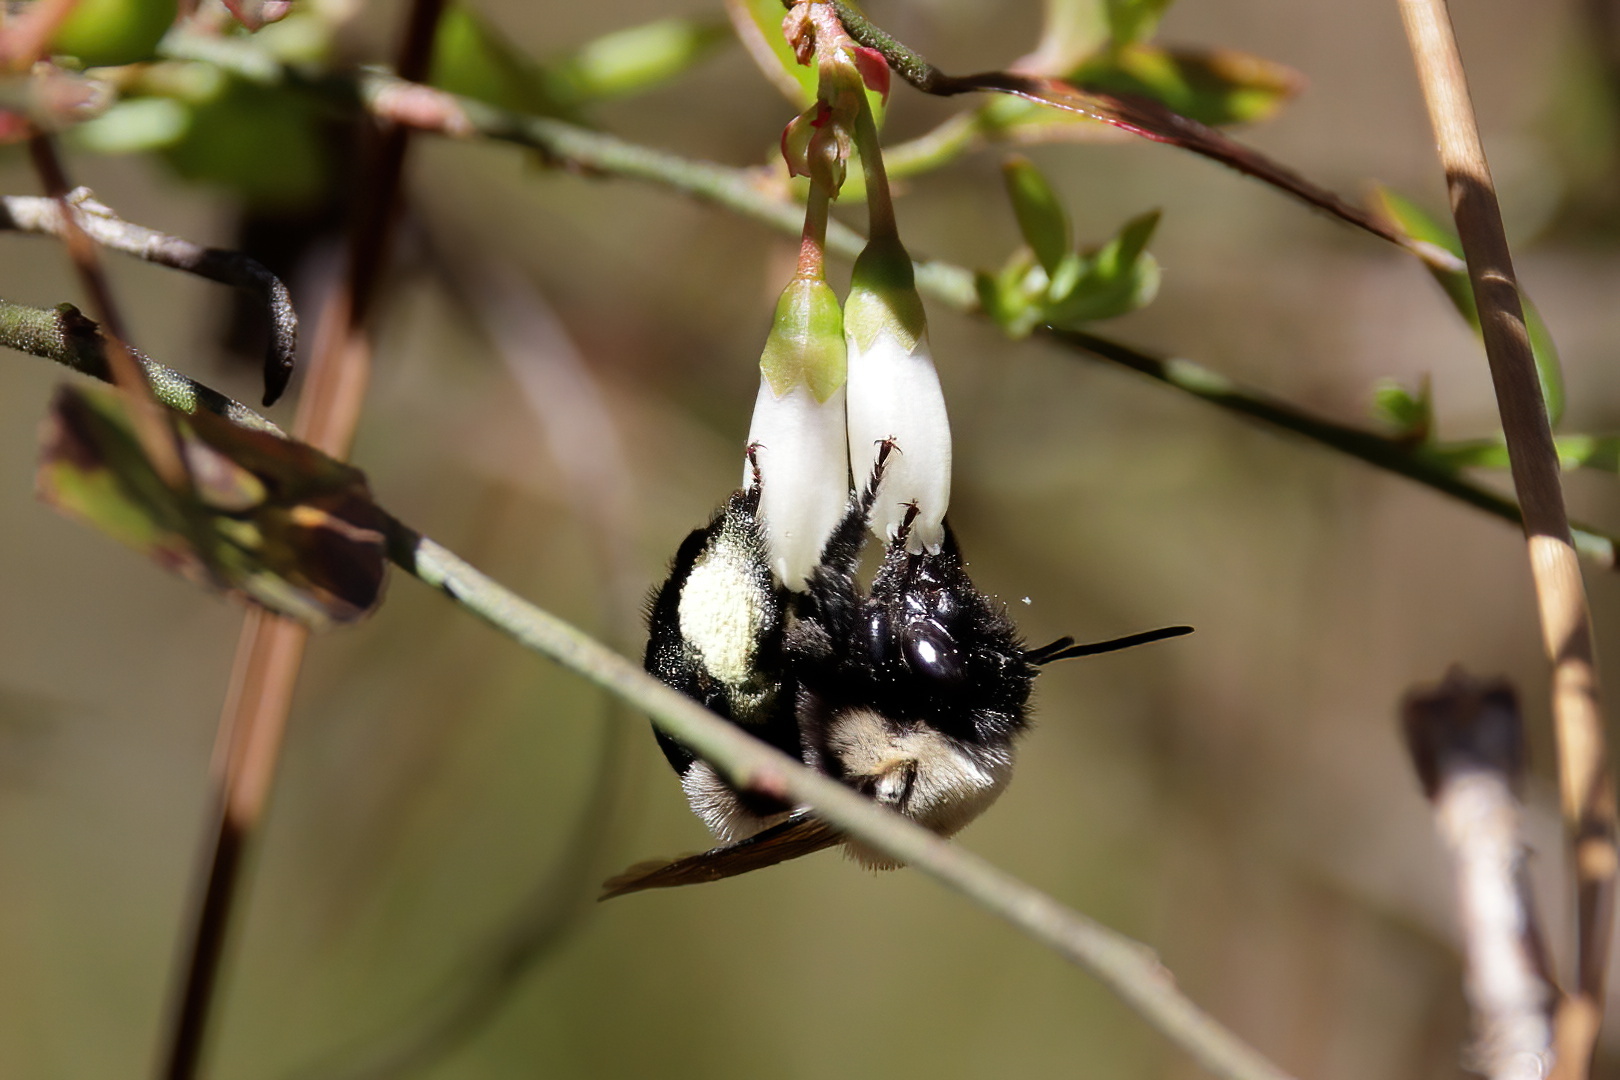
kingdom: Animalia
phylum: Arthropoda
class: Insecta
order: Hymenoptera
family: Apidae
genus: Habropoda
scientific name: Habropoda laboriosa
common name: Southeastern blueberry bee
